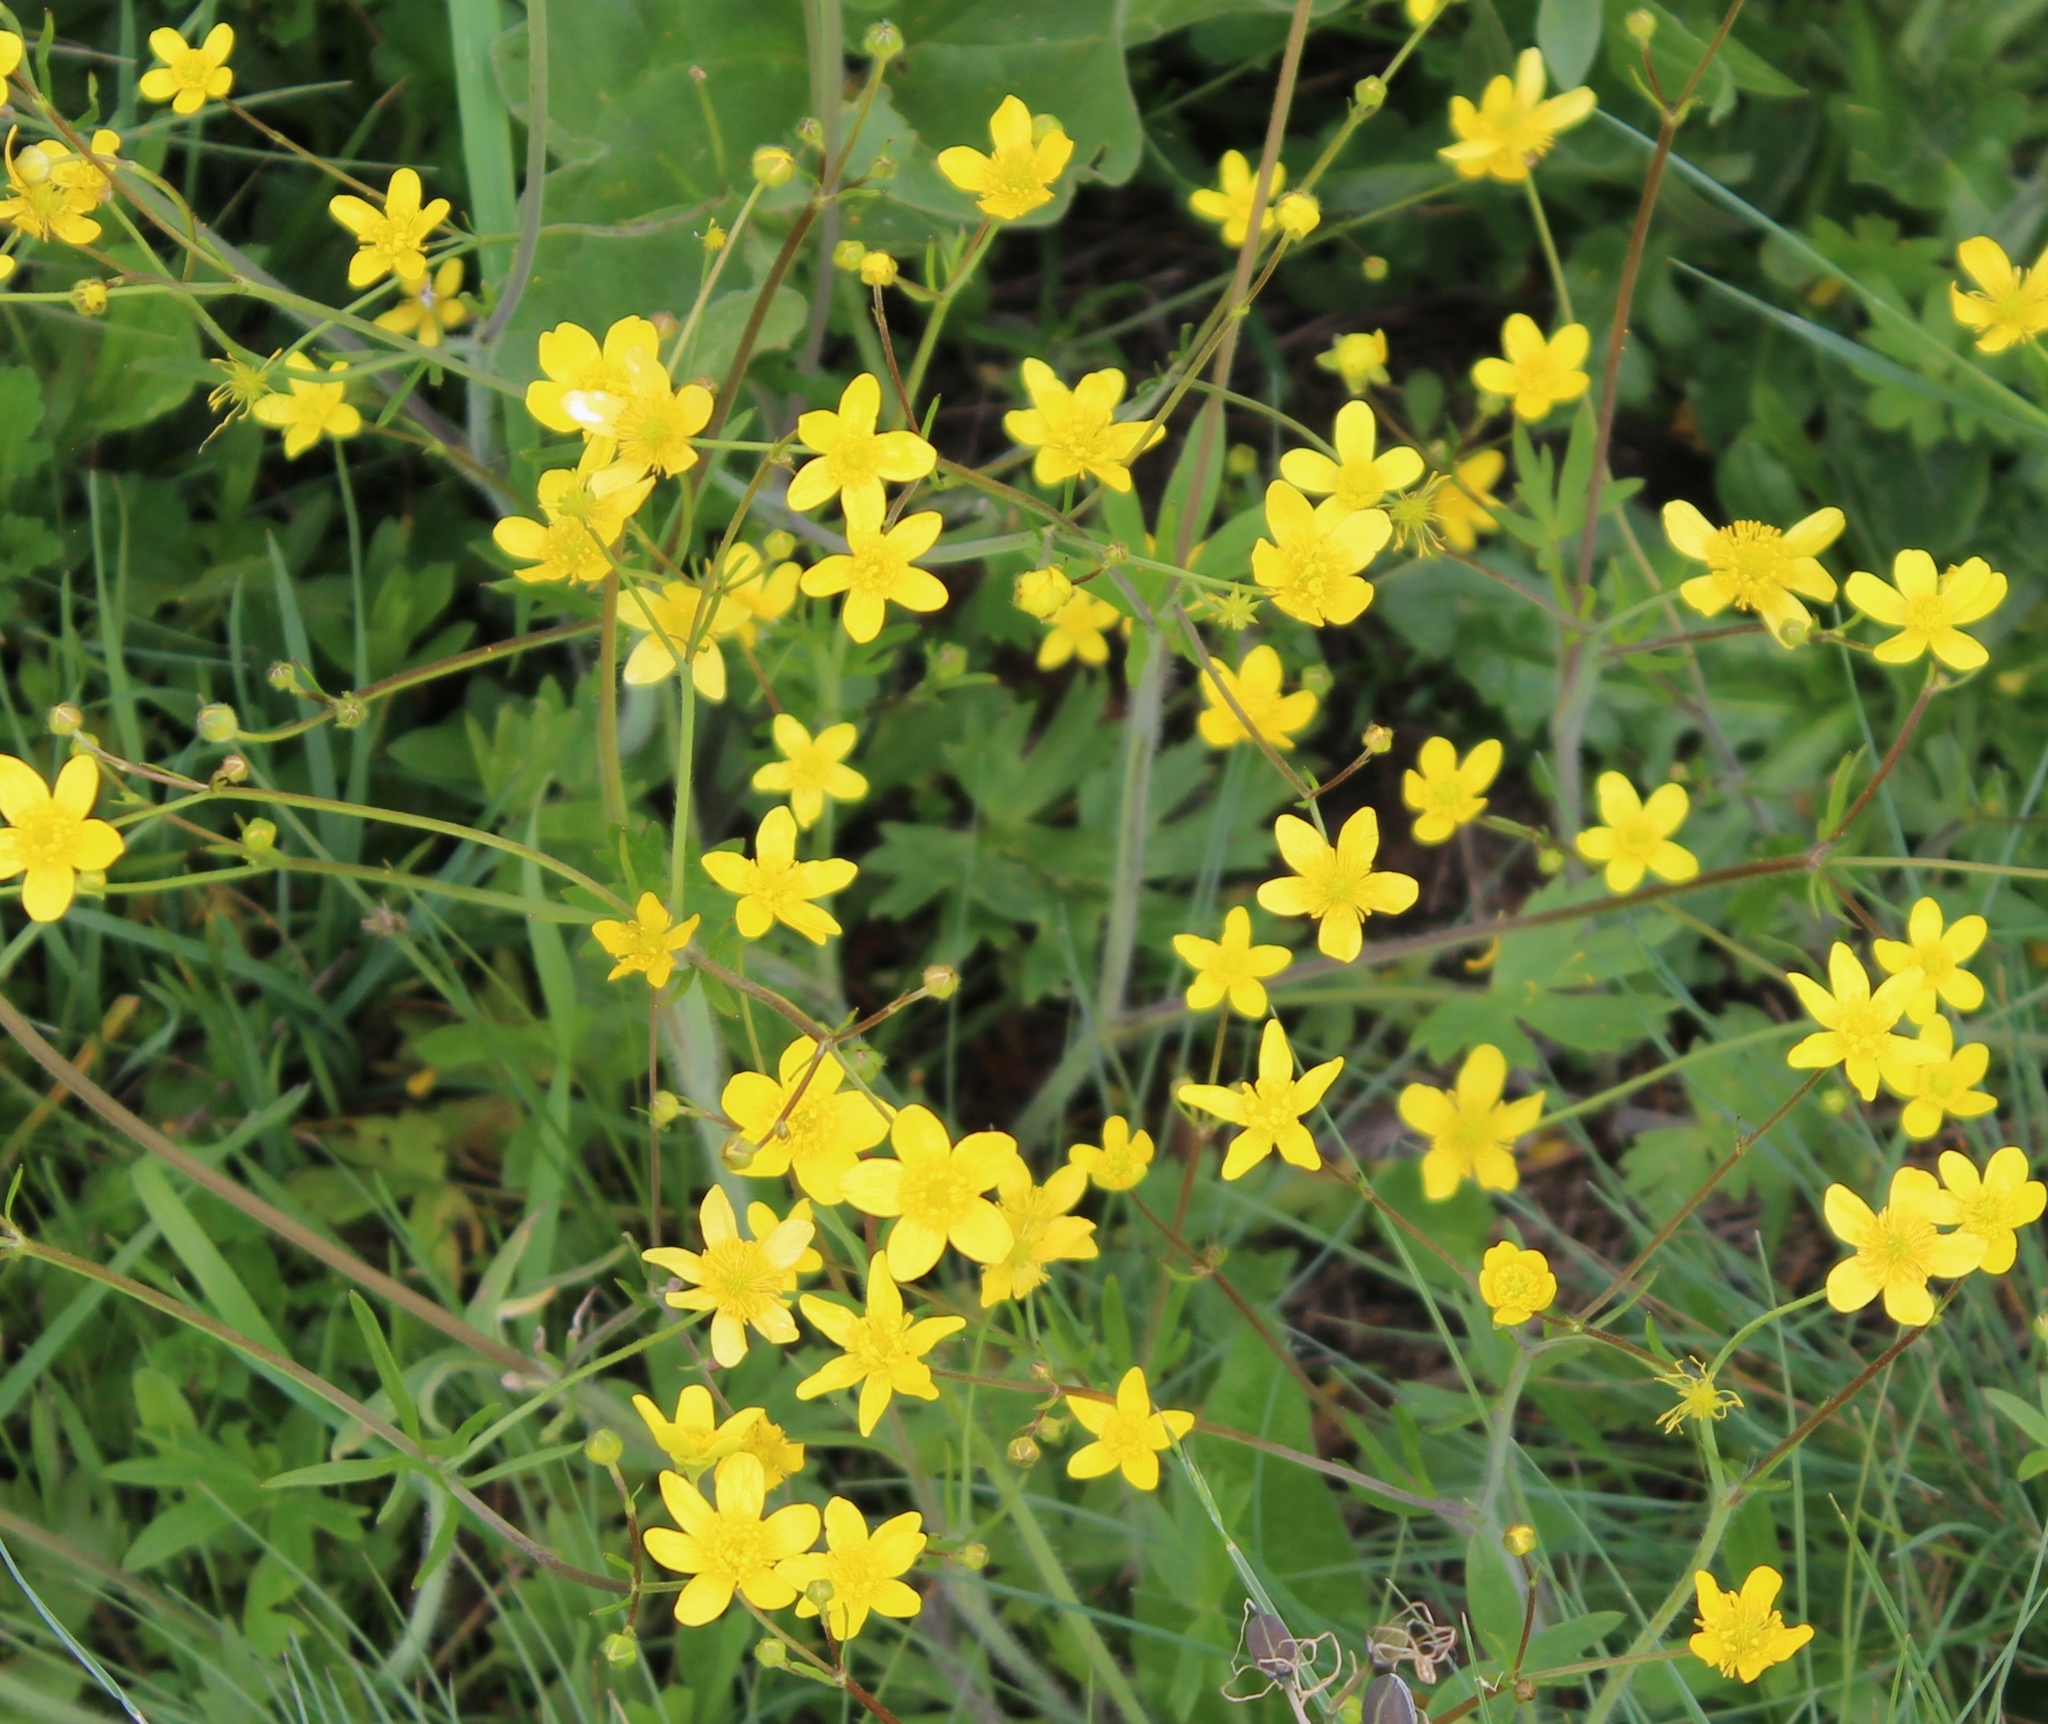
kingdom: Plantae
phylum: Tracheophyta
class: Magnoliopsida
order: Ranunculales
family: Ranunculaceae
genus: Ranunculus
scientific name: Ranunculus occidentalis
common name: Western buttercup
